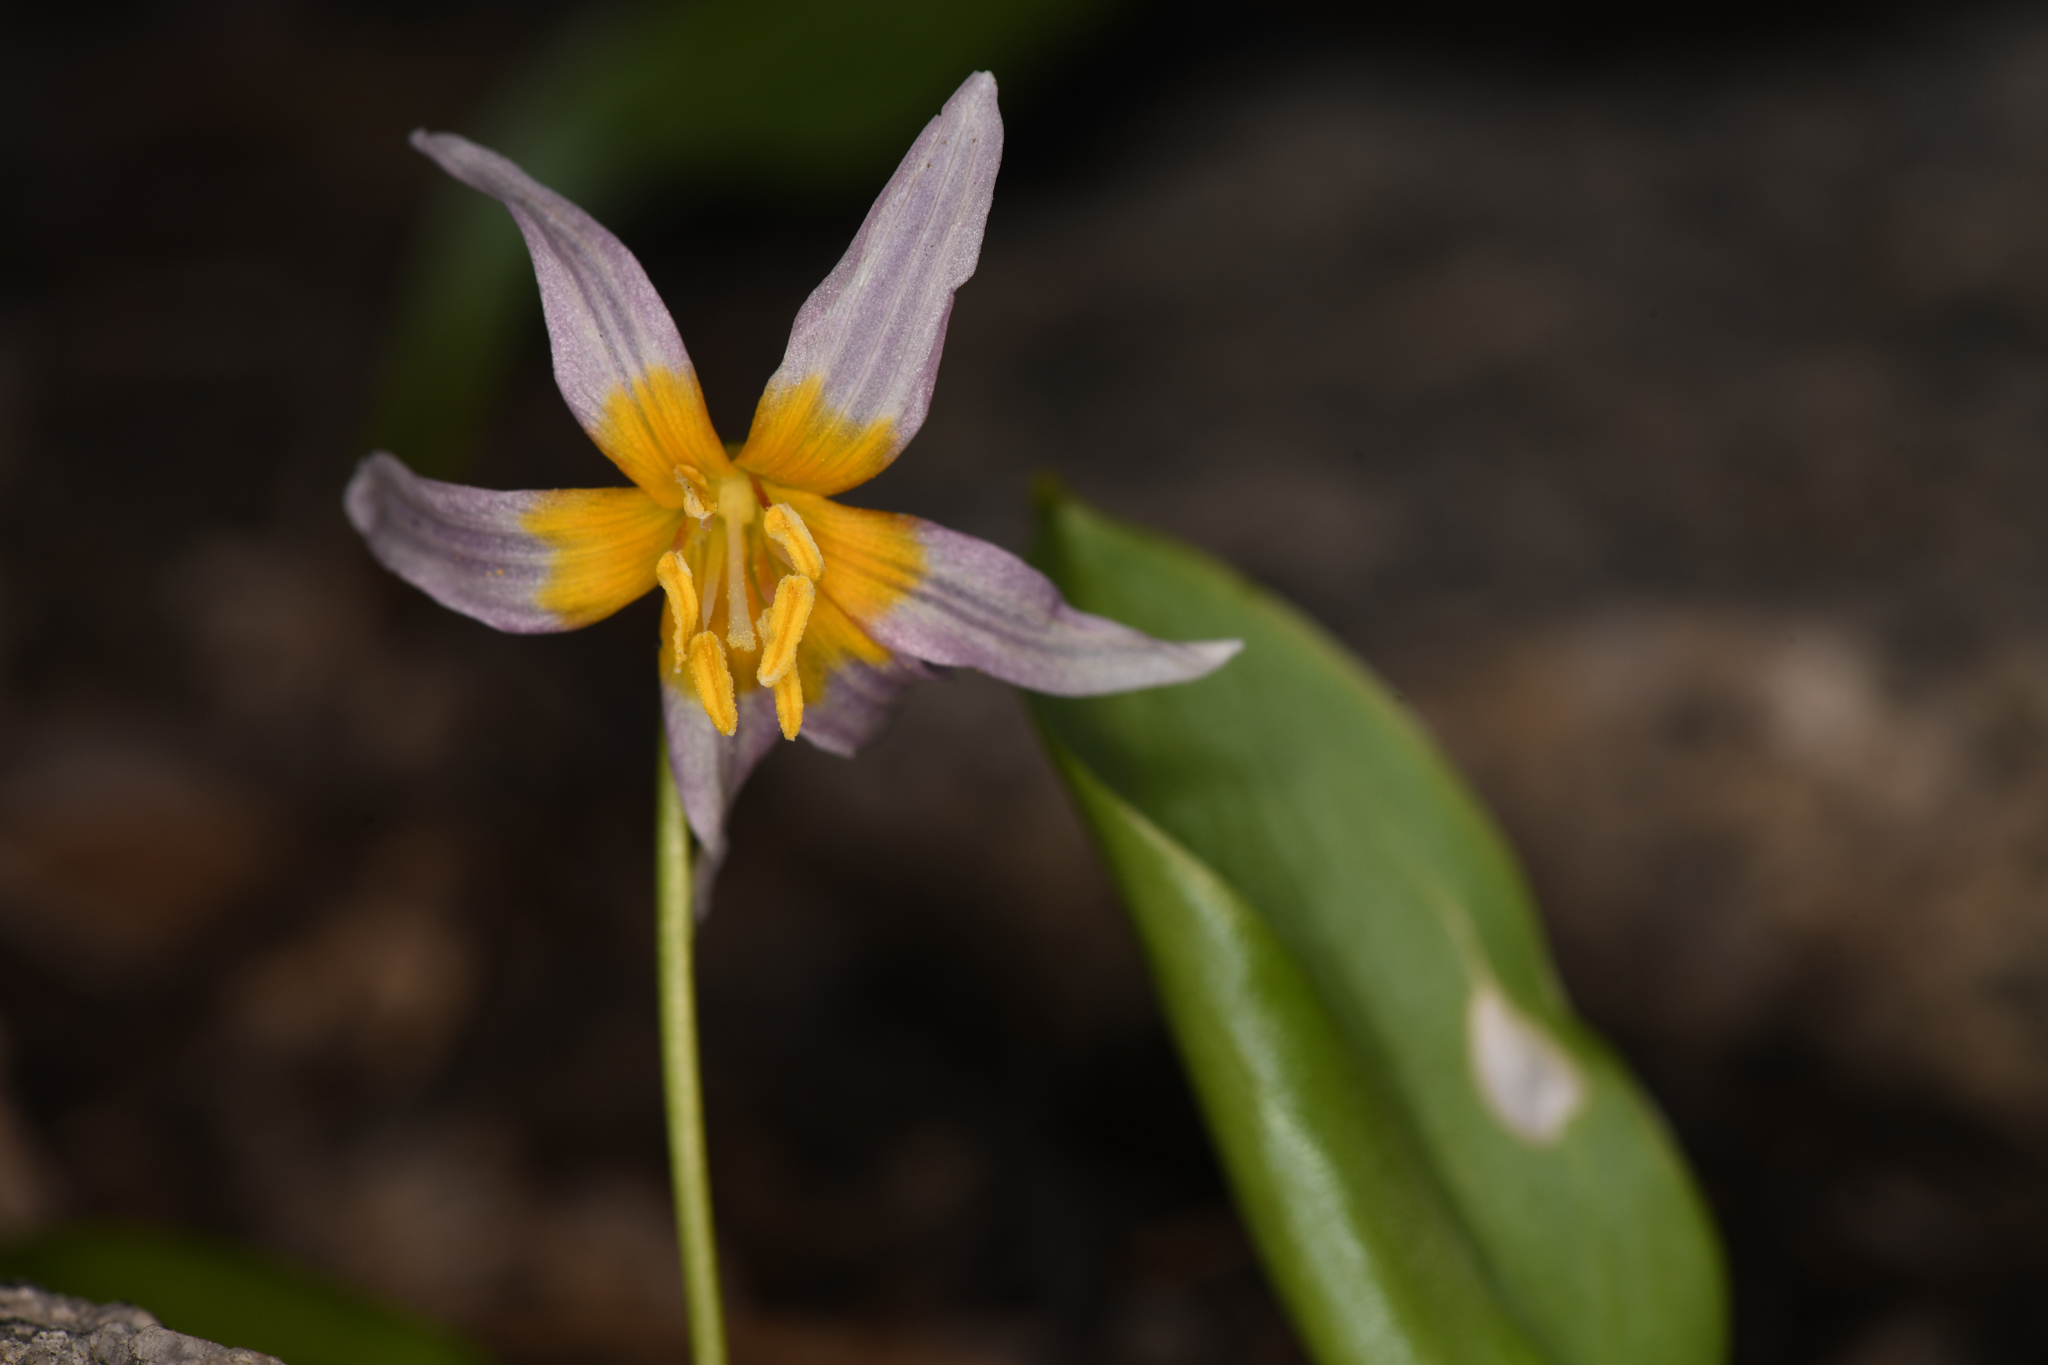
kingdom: Plantae
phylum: Tracheophyta
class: Liliopsida
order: Liliales
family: Liliaceae
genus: Erythronium
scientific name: Erythronium purpurascens
